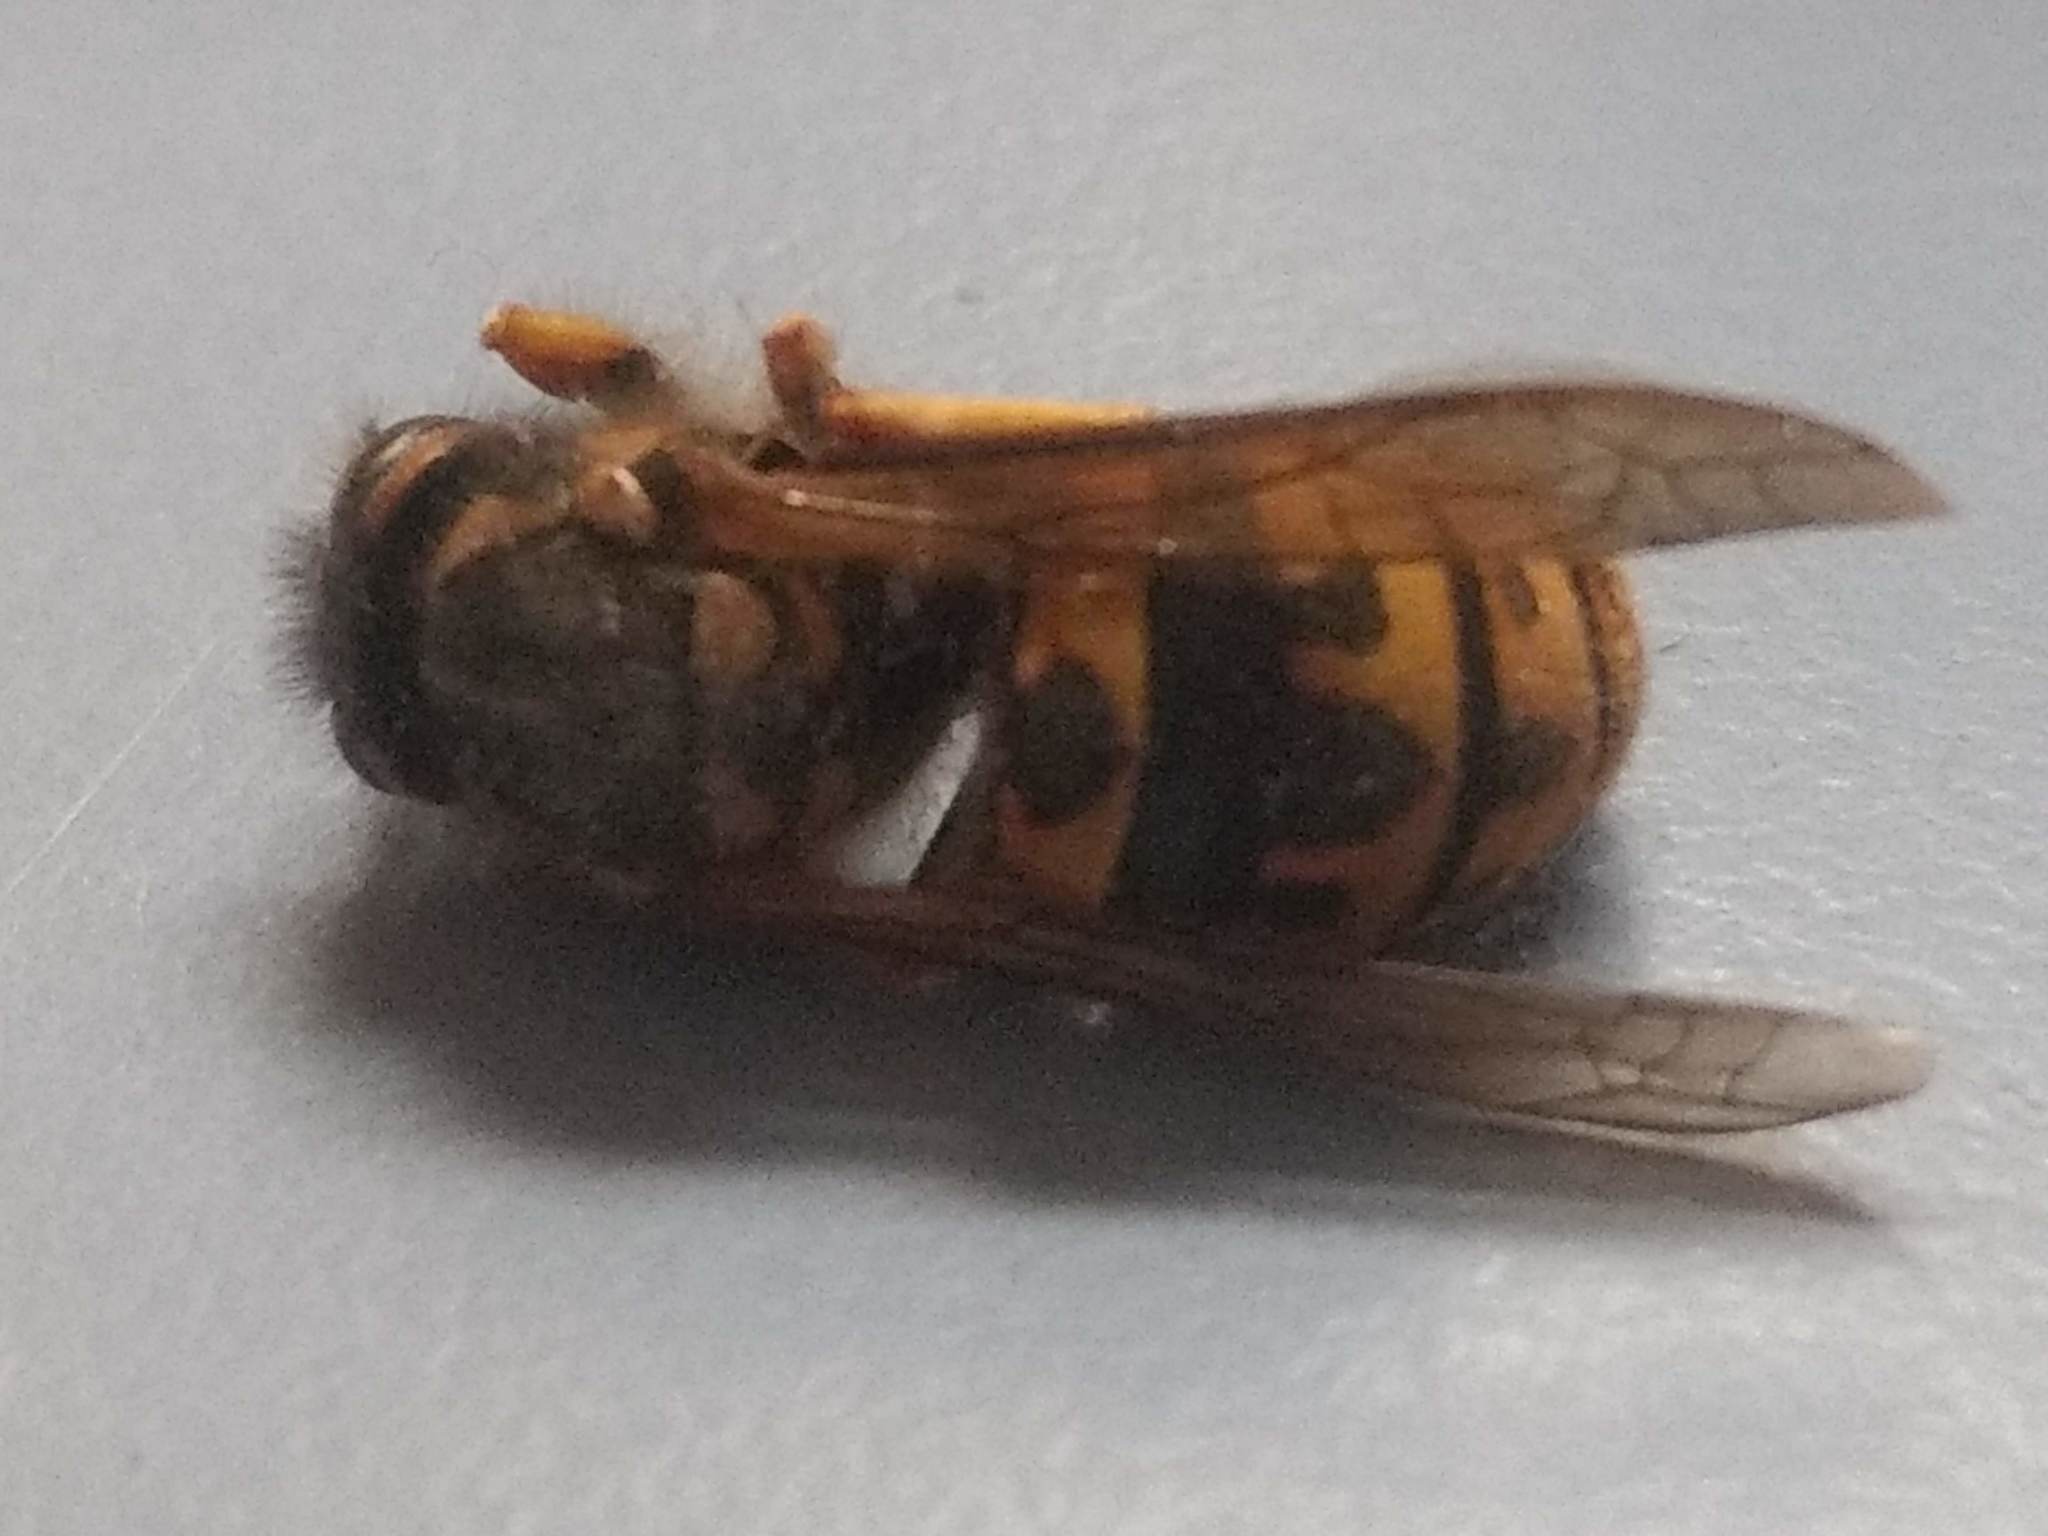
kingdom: Animalia
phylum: Arthropoda
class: Insecta
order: Hymenoptera
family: Vespidae
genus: Vespula
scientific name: Vespula germanica
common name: German wasp
